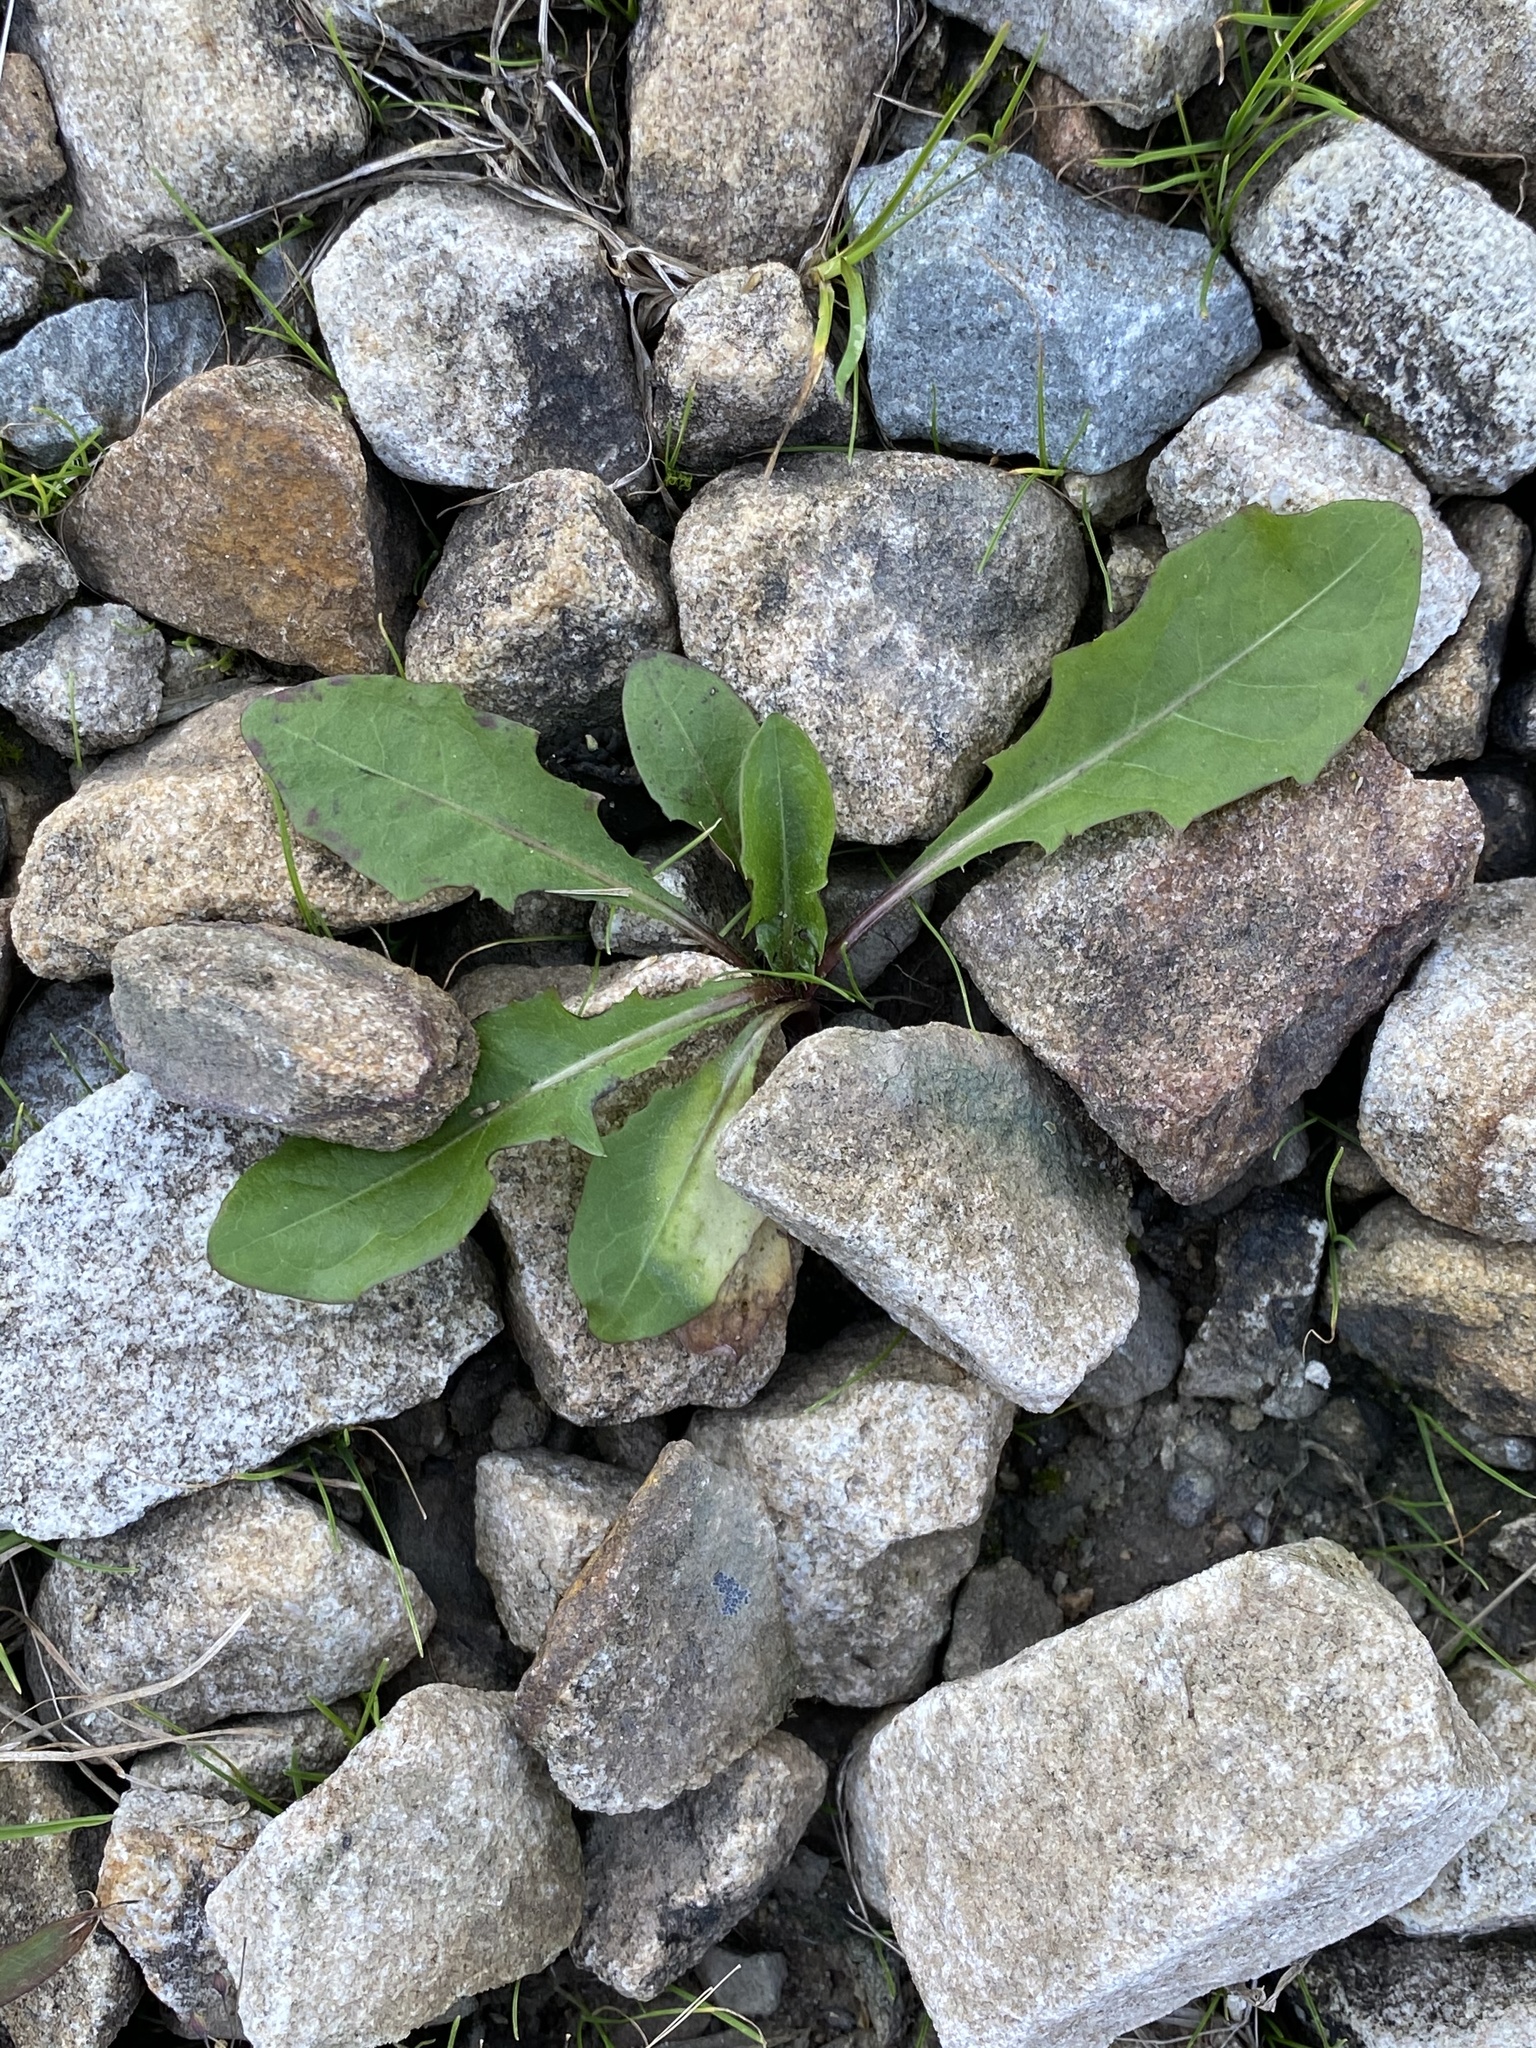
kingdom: Plantae
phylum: Tracheophyta
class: Magnoliopsida
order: Asterales
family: Asteraceae
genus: Taraxacum
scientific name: Taraxacum officinale
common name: Common dandelion
